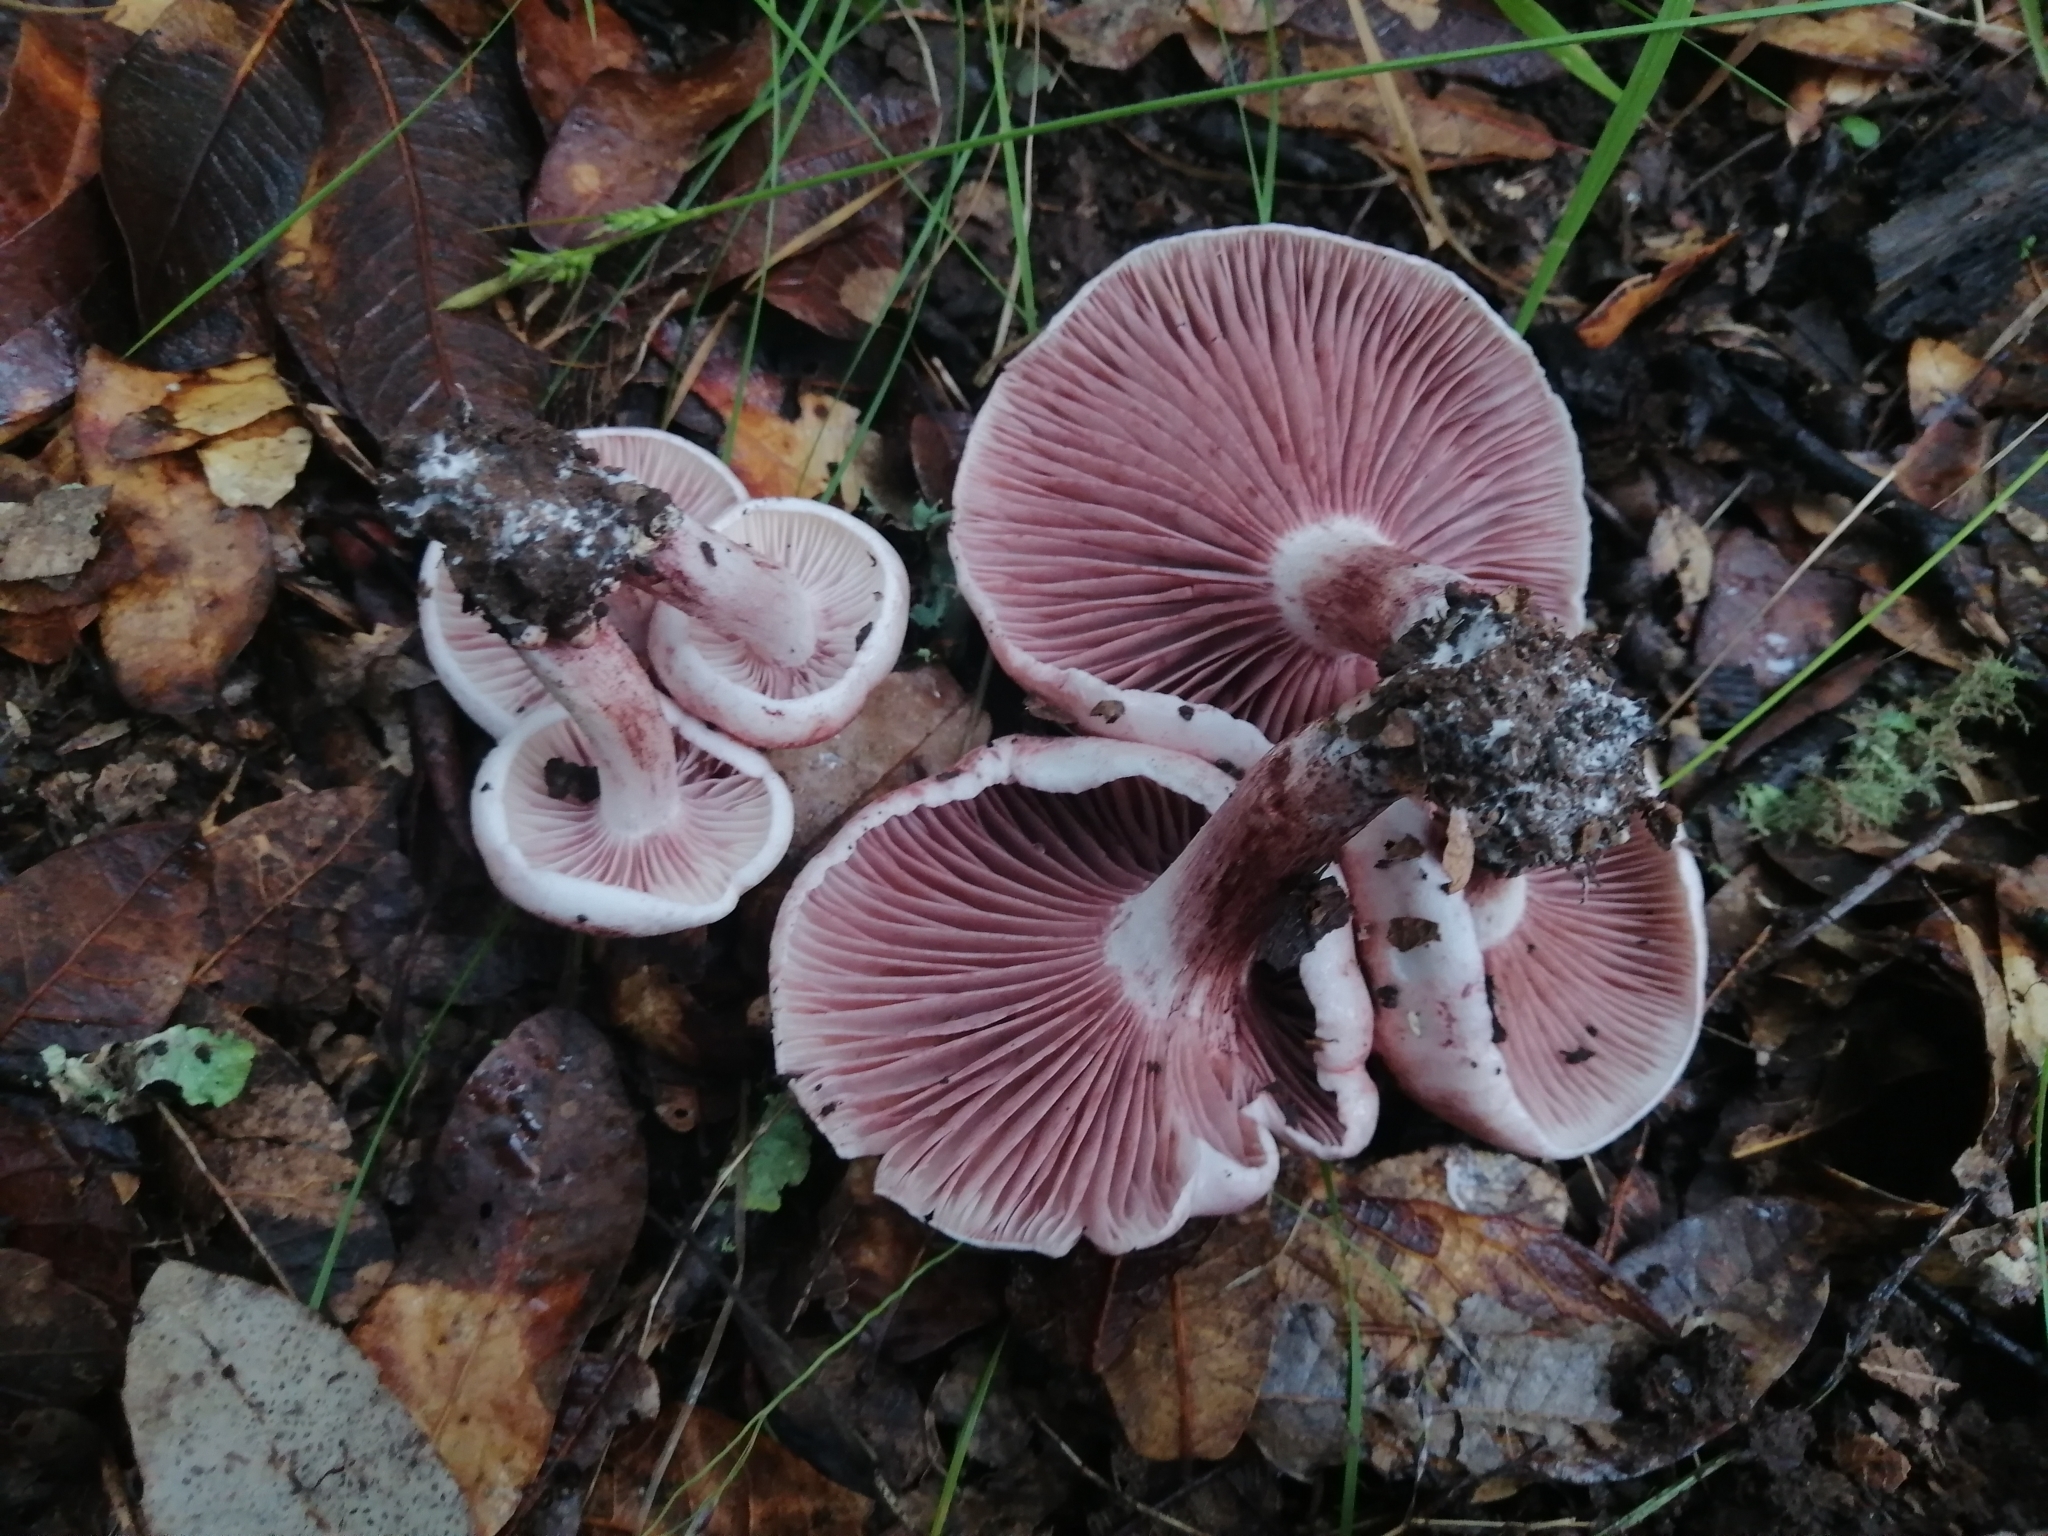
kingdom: Fungi
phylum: Basidiomycota
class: Agaricomycetes
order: Agaricales
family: Hygrophoraceae
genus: Hygrophorus
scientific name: Hygrophorus russula
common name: Pinkmottle woodwax
